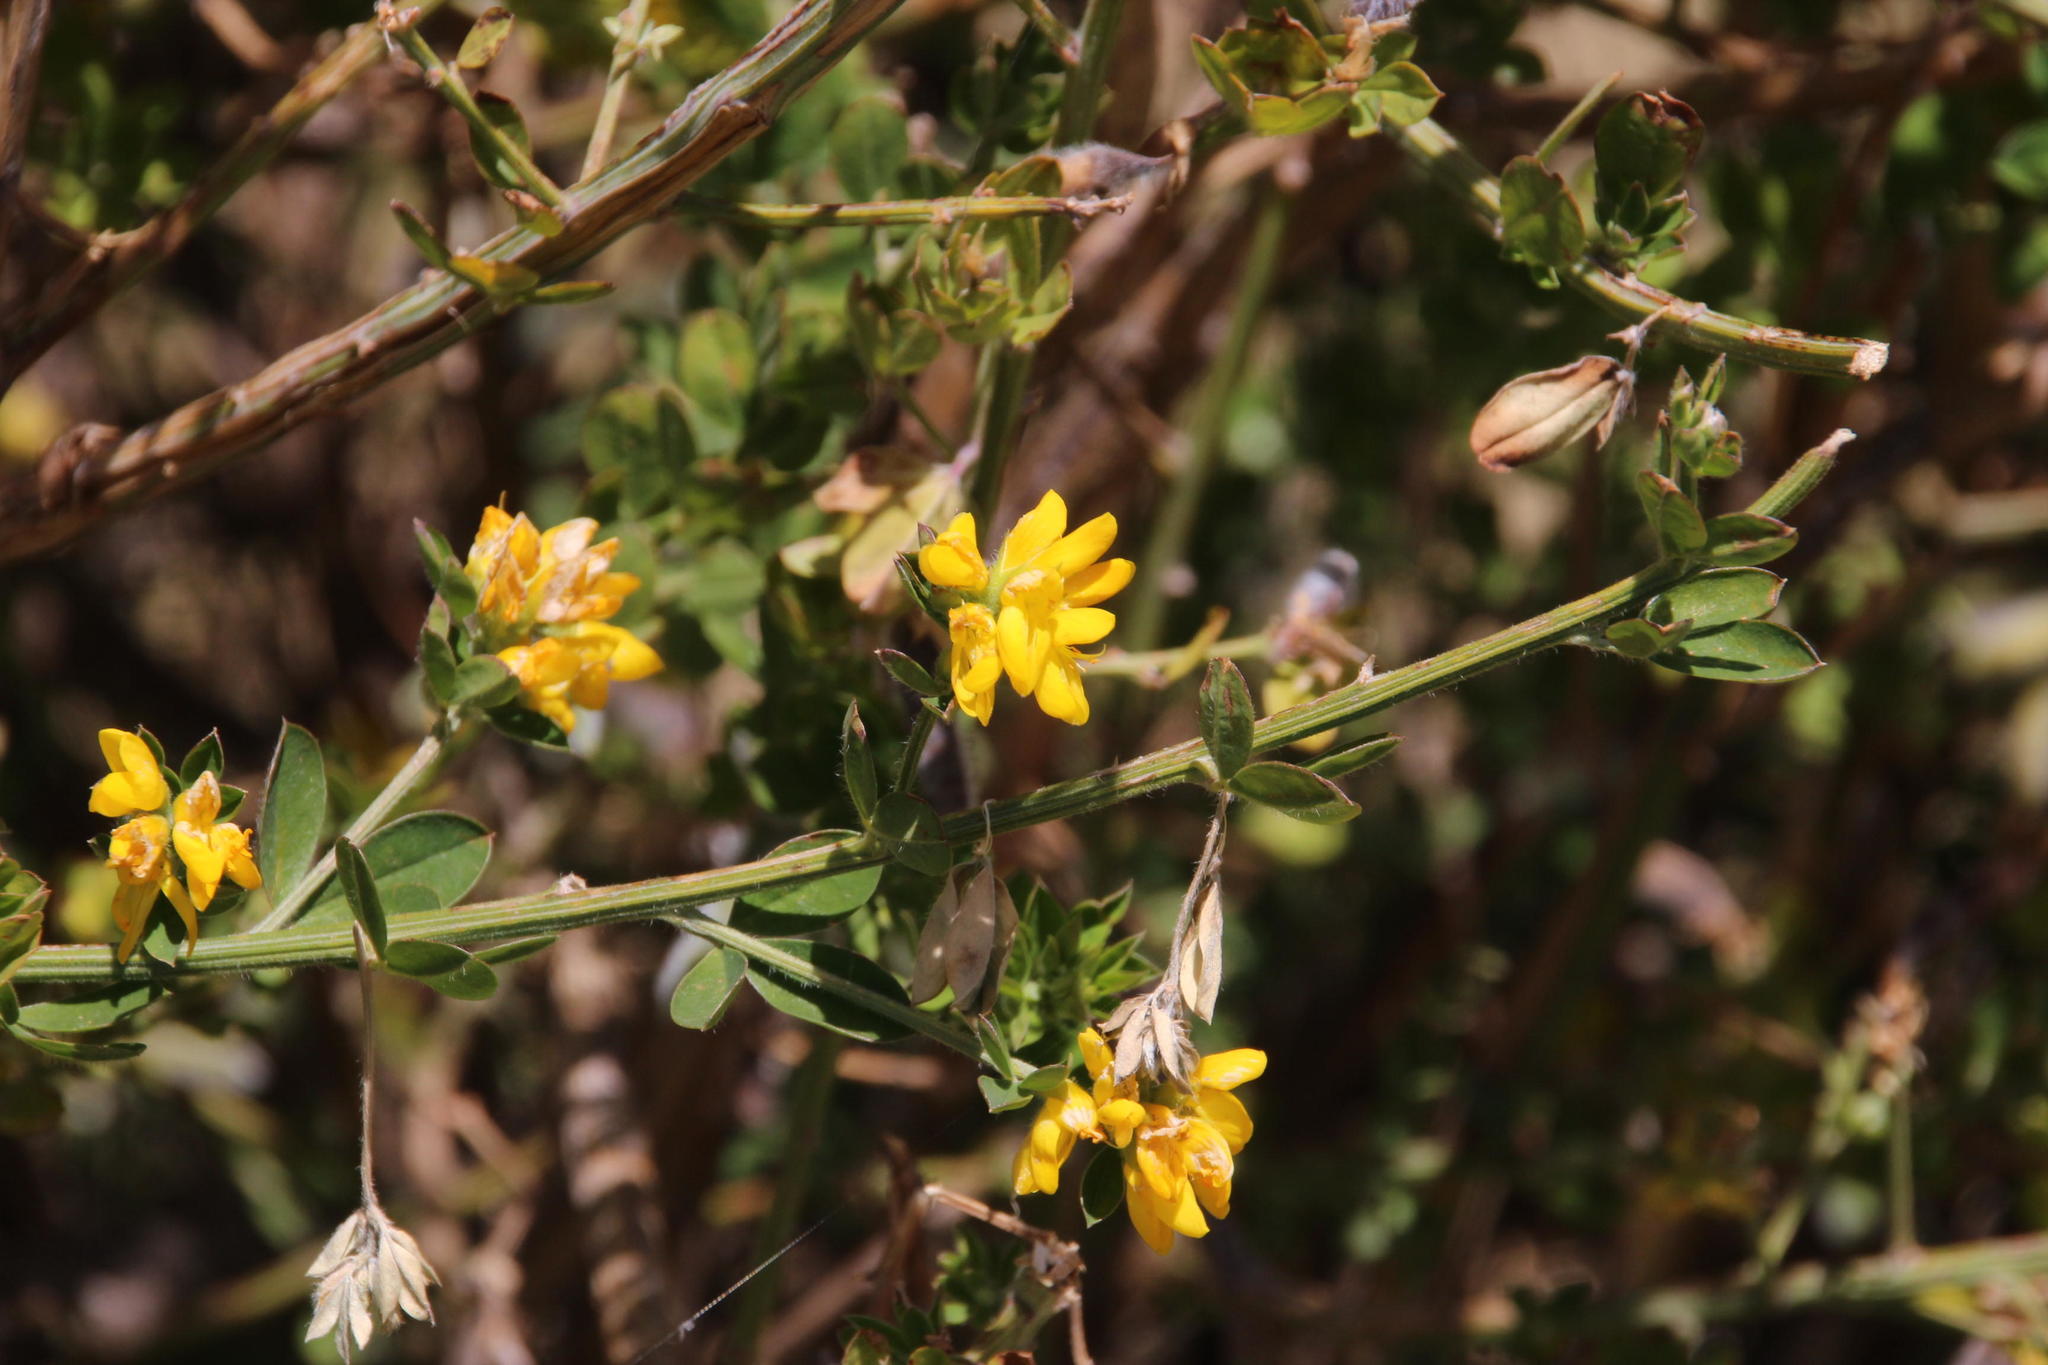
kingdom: Plantae
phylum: Tracheophyta
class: Magnoliopsida
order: Fabales
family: Fabaceae
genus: Genista
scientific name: Genista monspessulana
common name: Montpellier broom
